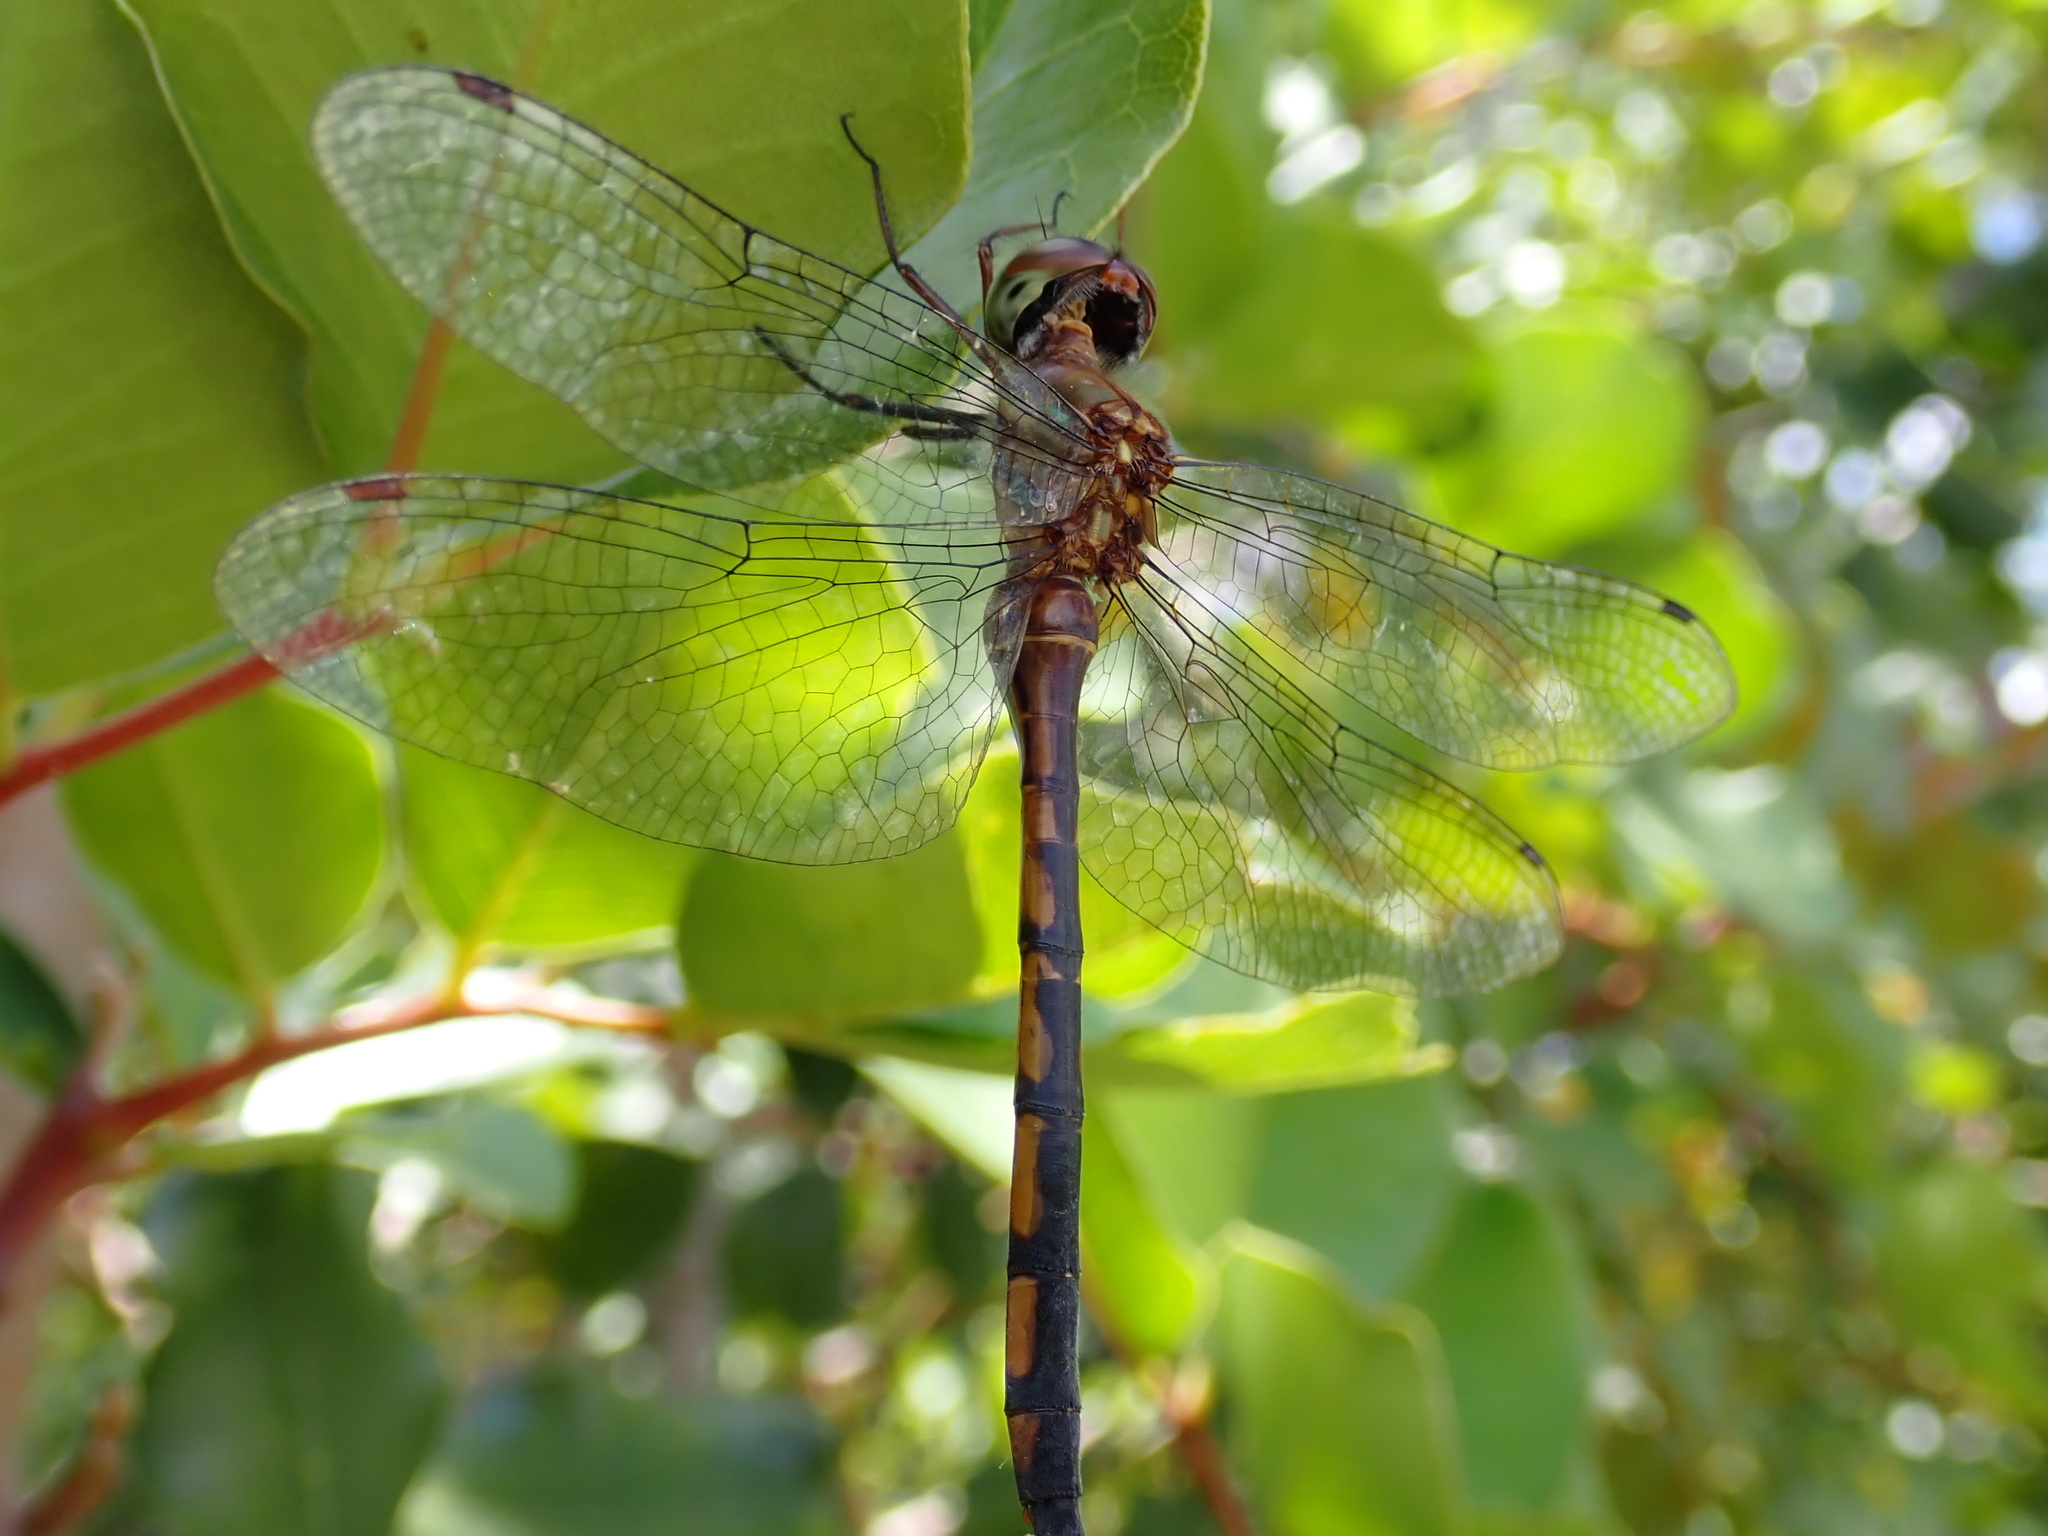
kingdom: Animalia
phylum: Arthropoda
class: Insecta
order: Odonata
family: Corduliidae
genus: Hemicordulia
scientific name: Hemicordulia continentalis
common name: Fat-bellied emerald
